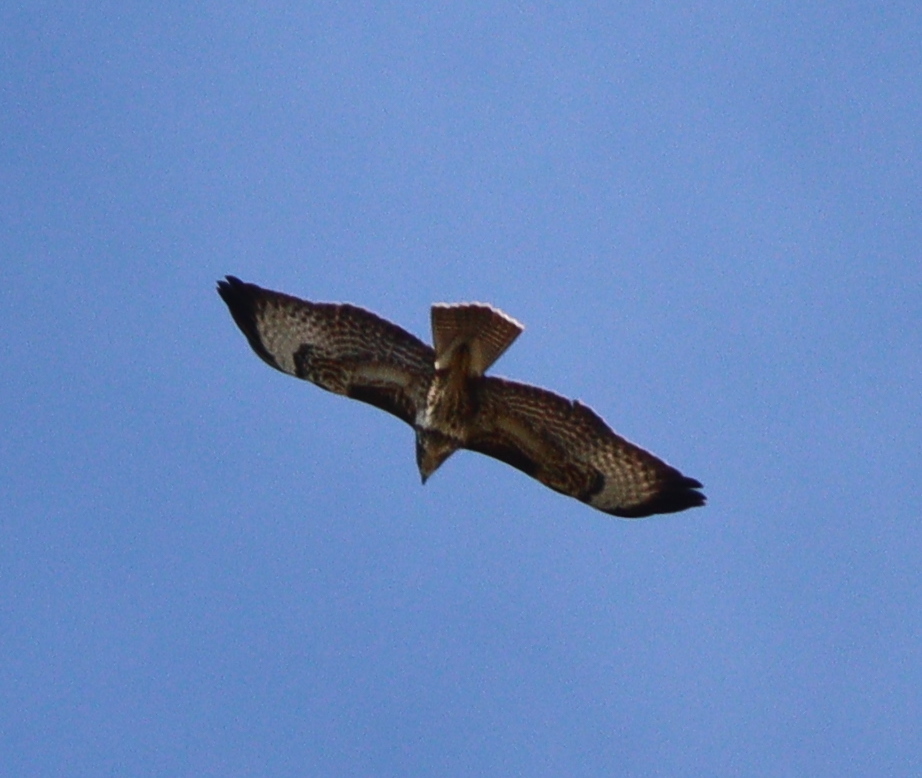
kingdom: Animalia
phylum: Chordata
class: Aves
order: Accipitriformes
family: Accipitridae
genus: Buteo
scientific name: Buteo buteo
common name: Common buzzard
